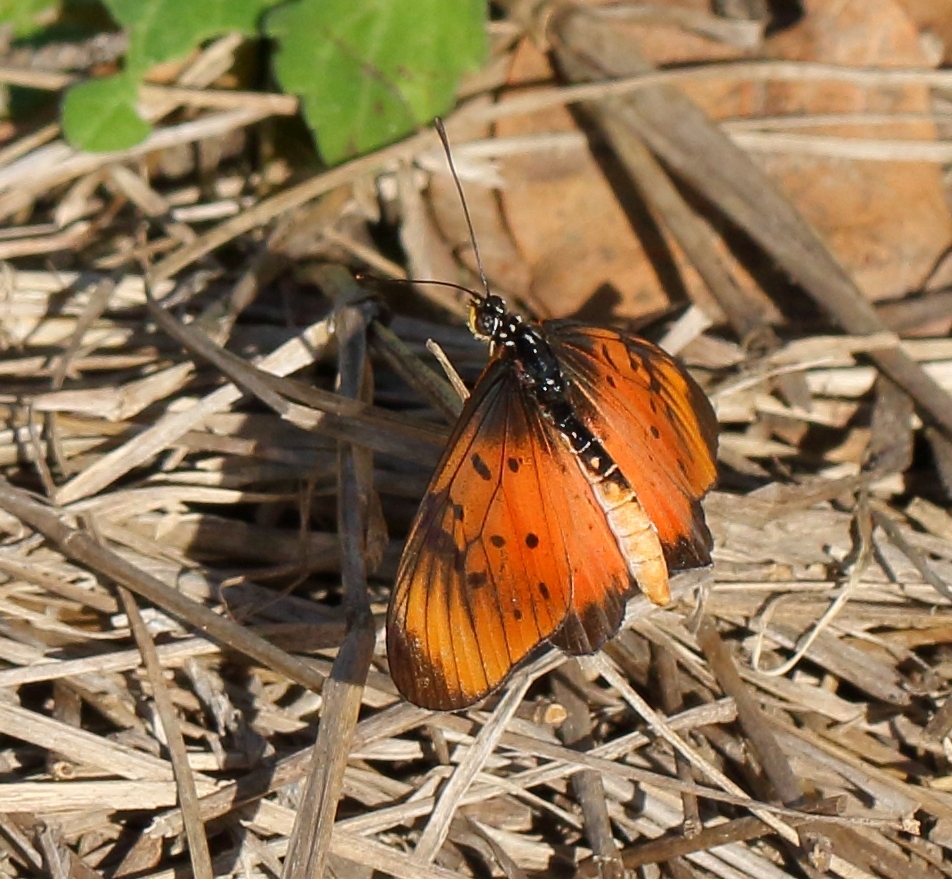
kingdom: Animalia
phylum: Arthropoda
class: Insecta
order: Lepidoptera
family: Nymphalidae
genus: Stephenia
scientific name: Stephenia
